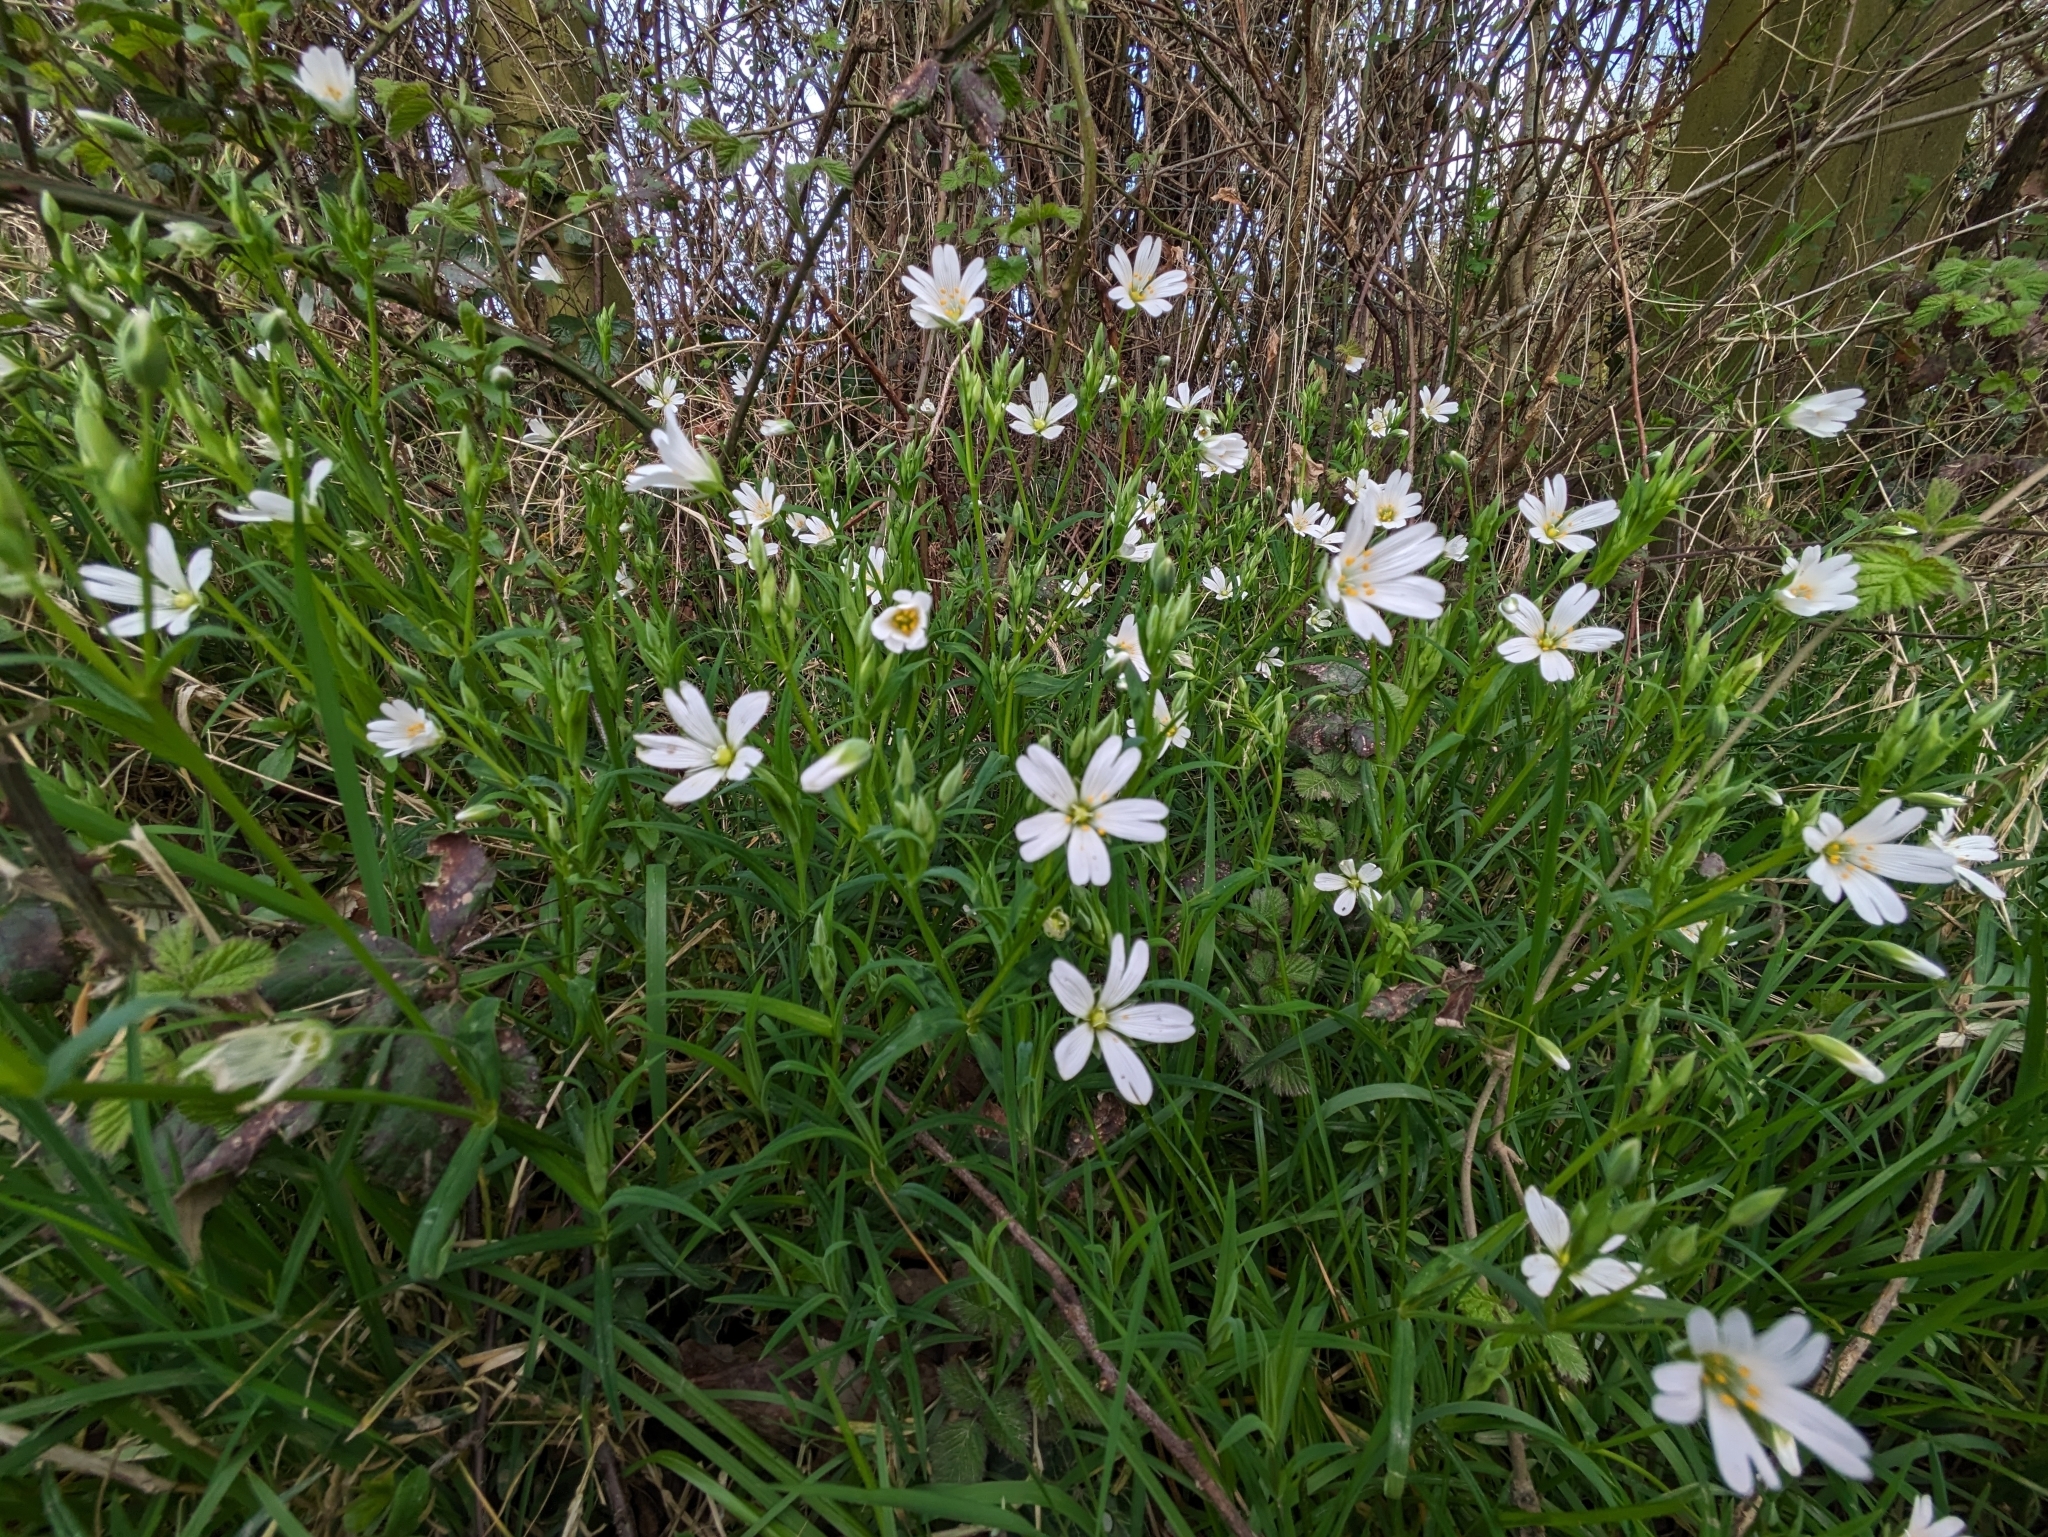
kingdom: Plantae
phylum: Tracheophyta
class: Magnoliopsida
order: Caryophyllales
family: Caryophyllaceae
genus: Rabelera
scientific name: Rabelera holostea
